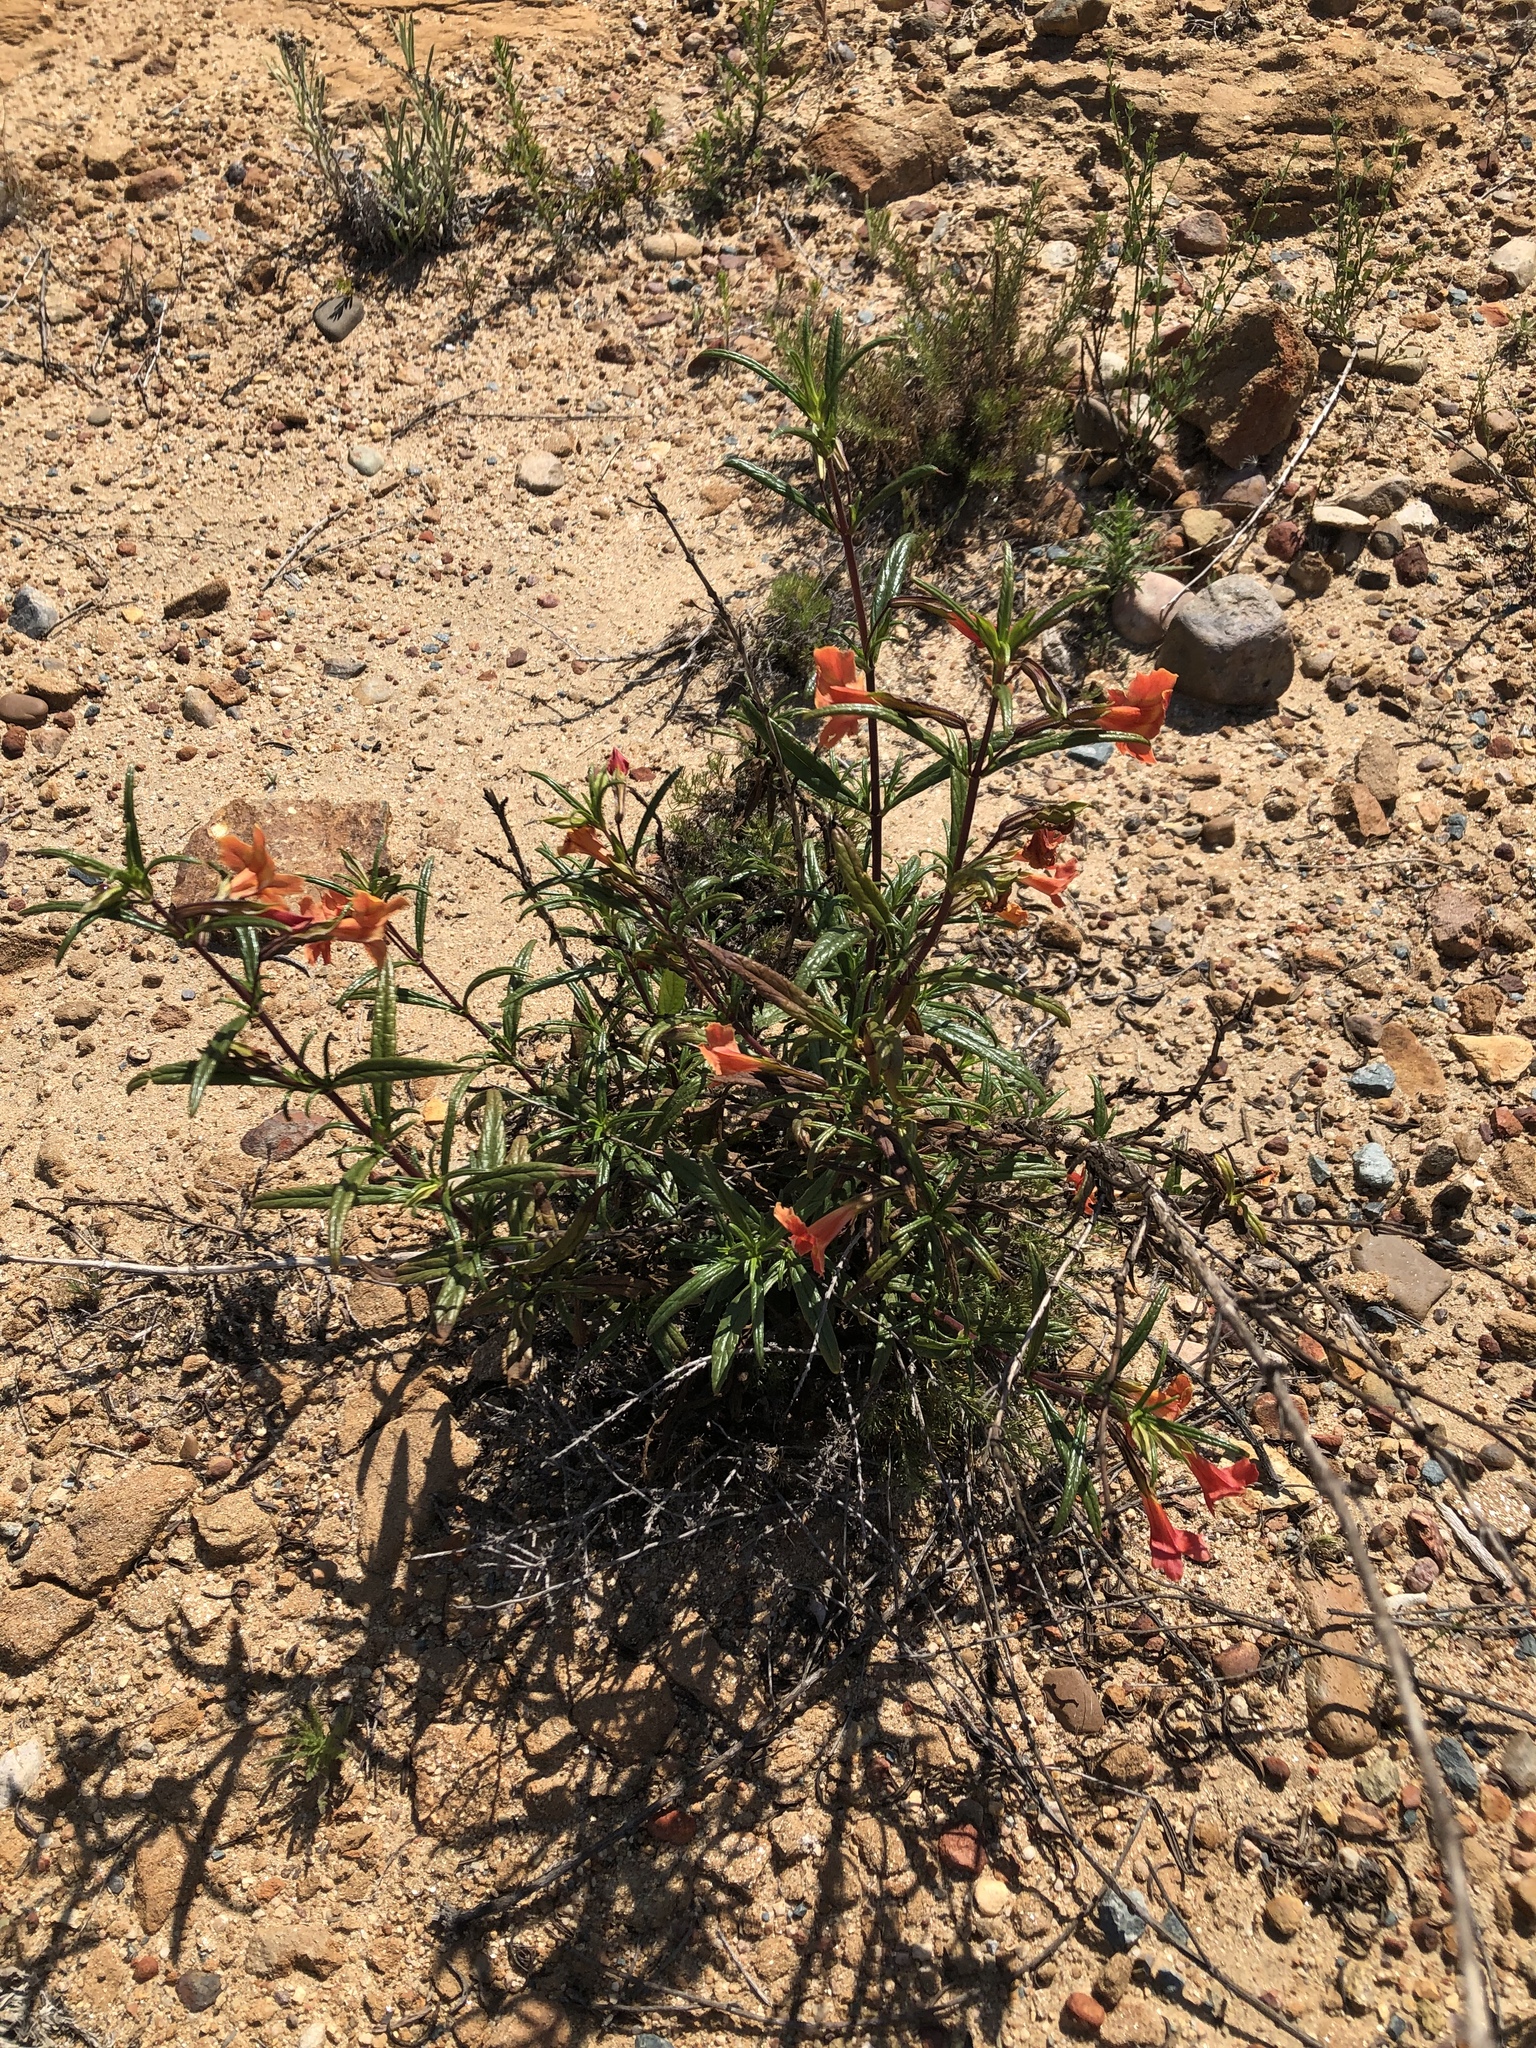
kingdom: Plantae
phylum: Tracheophyta
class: Magnoliopsida
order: Lamiales
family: Phrymaceae
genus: Diplacus
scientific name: Diplacus puniceus
